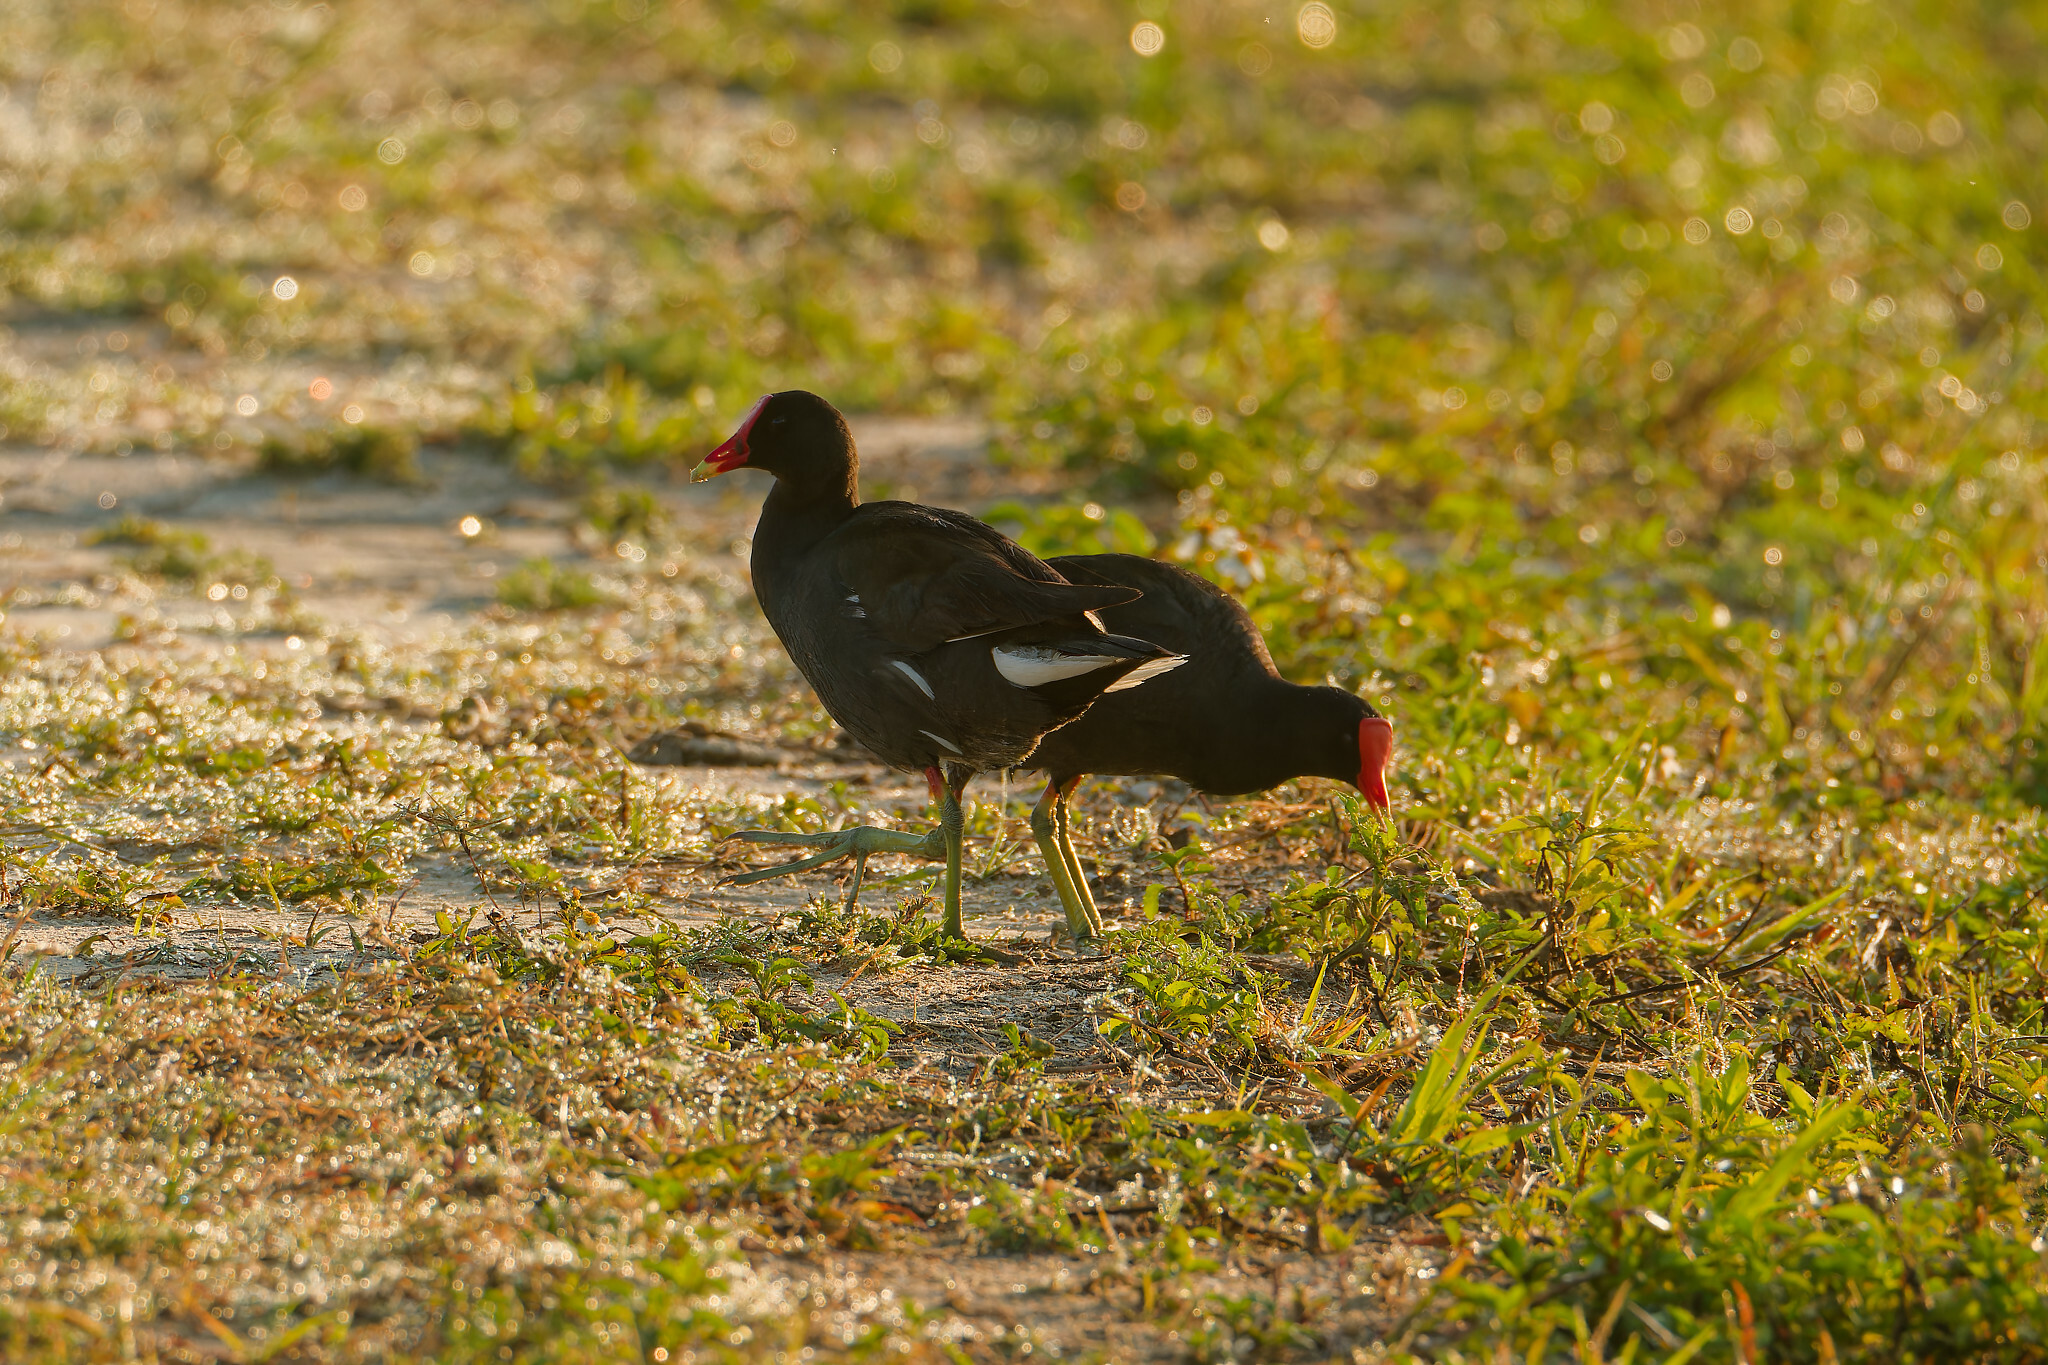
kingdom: Animalia
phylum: Chordata
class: Aves
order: Gruiformes
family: Rallidae
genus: Gallinula
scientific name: Gallinula chloropus
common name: Common moorhen
